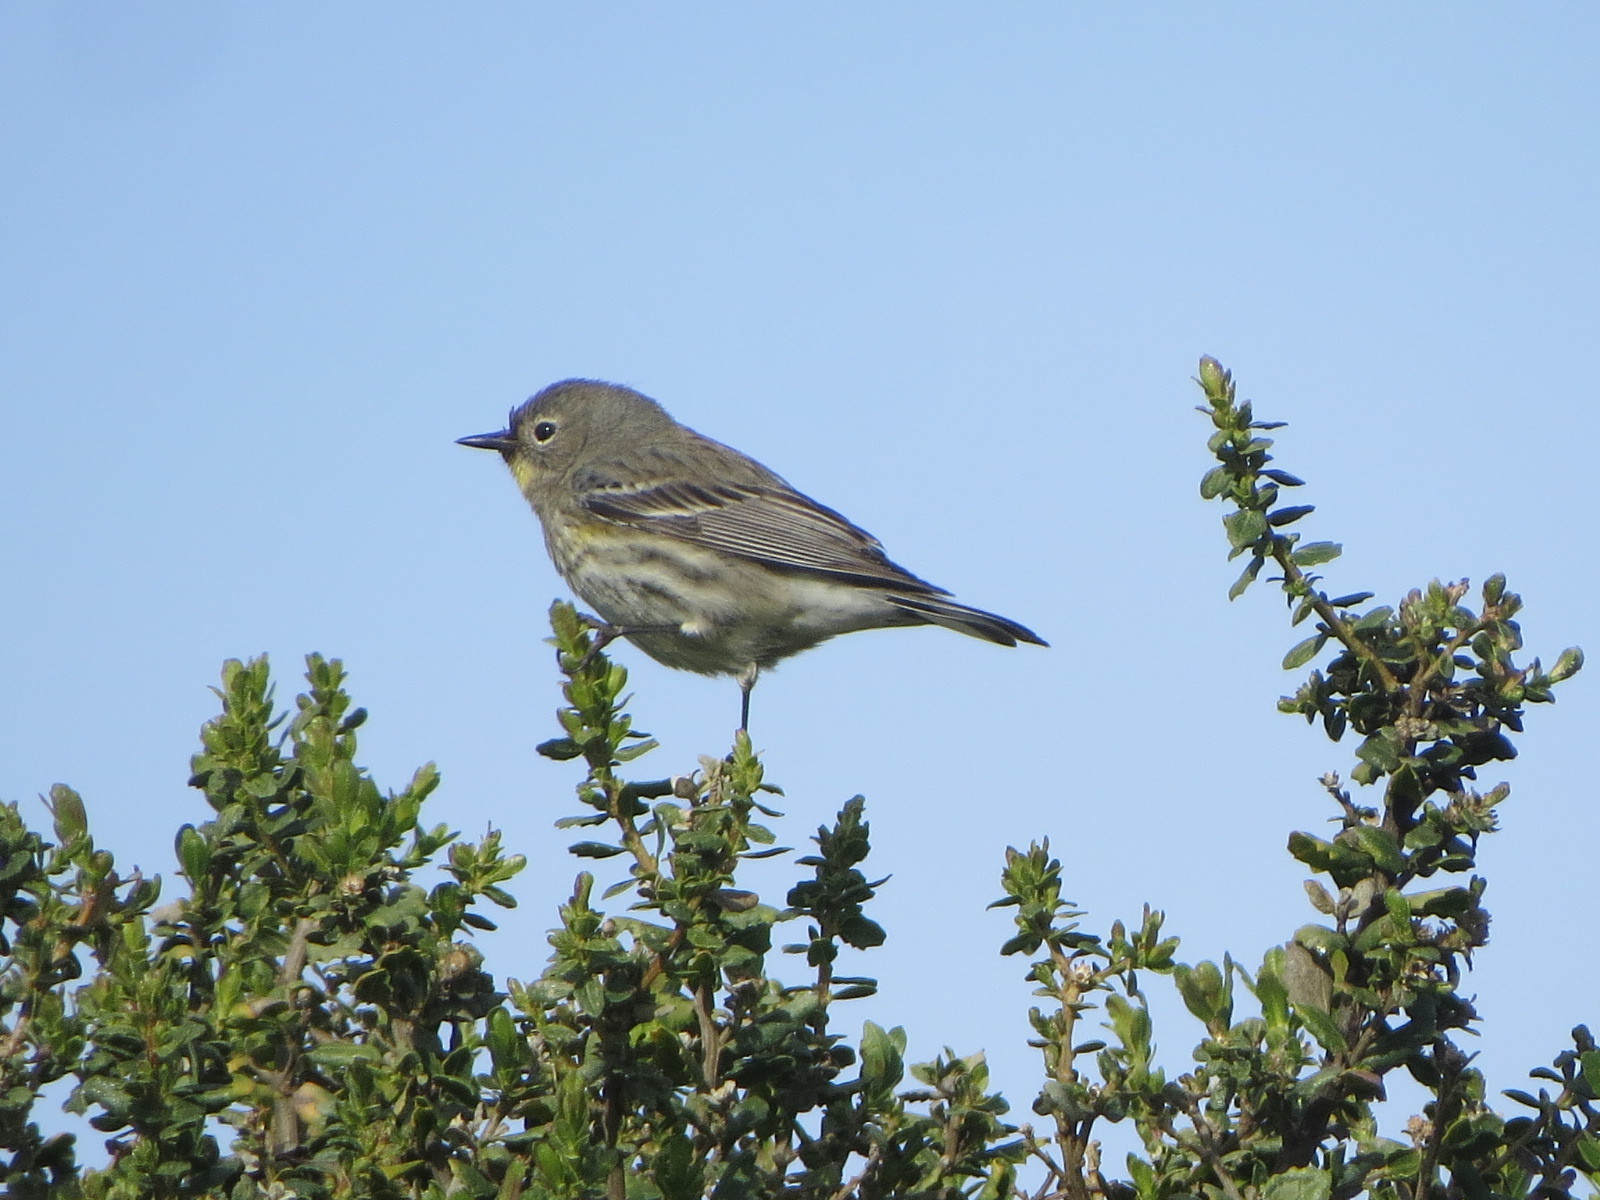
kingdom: Animalia
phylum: Chordata
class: Aves
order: Passeriformes
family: Parulidae
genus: Setophaga
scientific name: Setophaga auduboni
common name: Audubon's warbler
